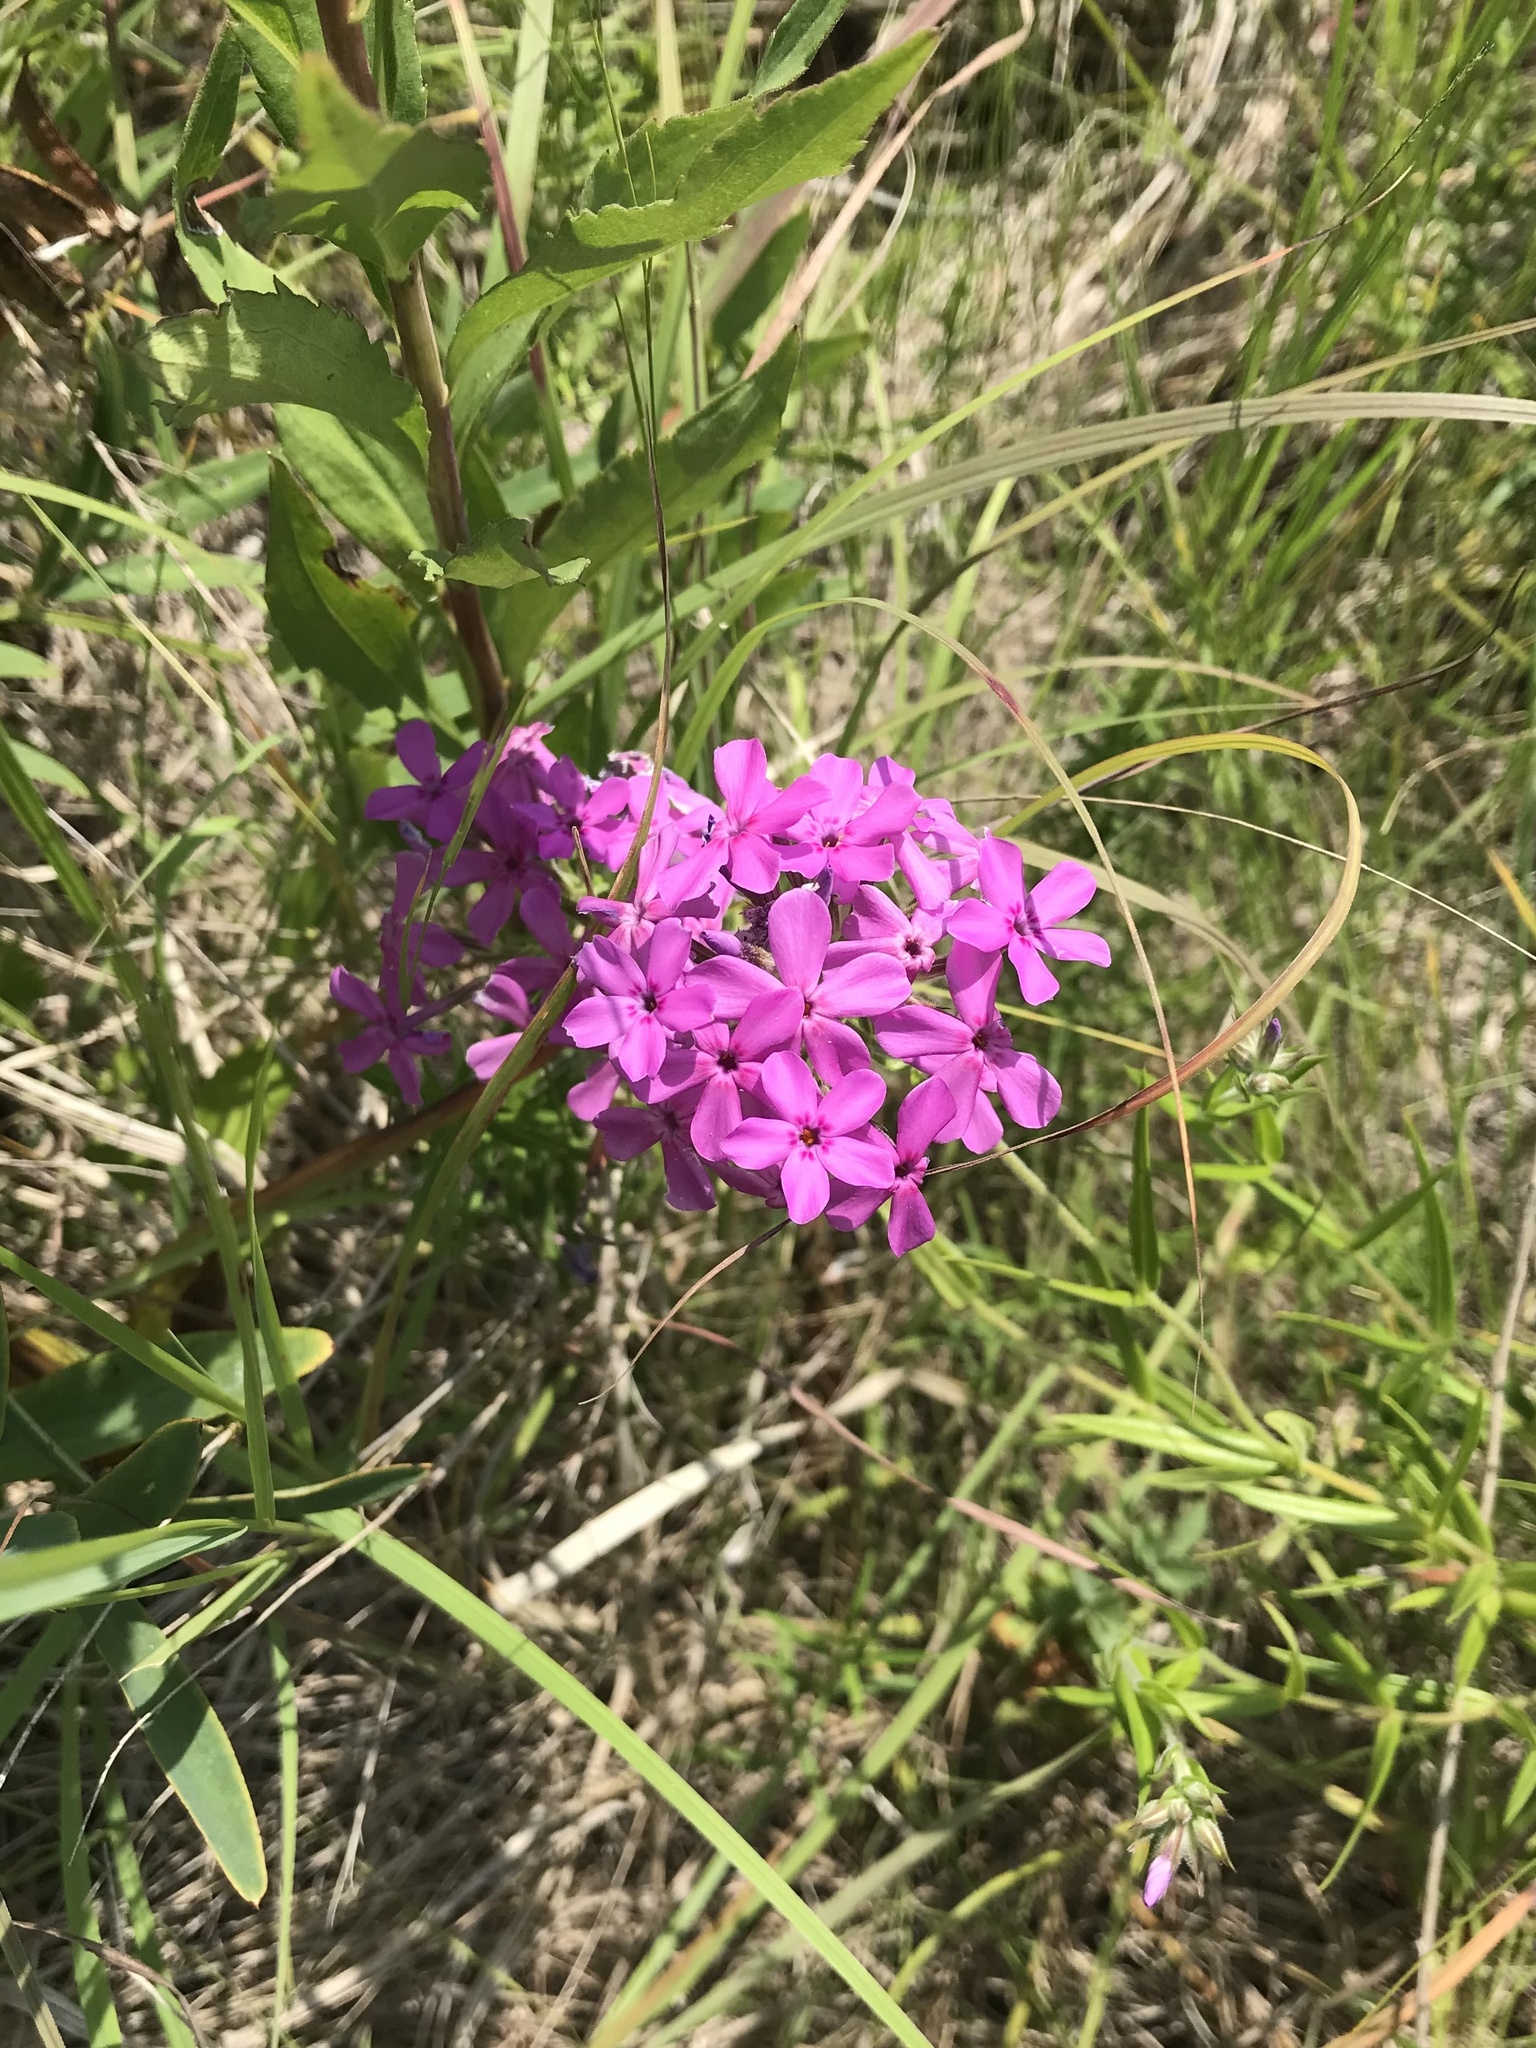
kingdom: Plantae
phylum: Tracheophyta
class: Magnoliopsida
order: Ericales
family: Polemoniaceae
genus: Phlox
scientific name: Phlox pilosa
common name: Prairie phlox
